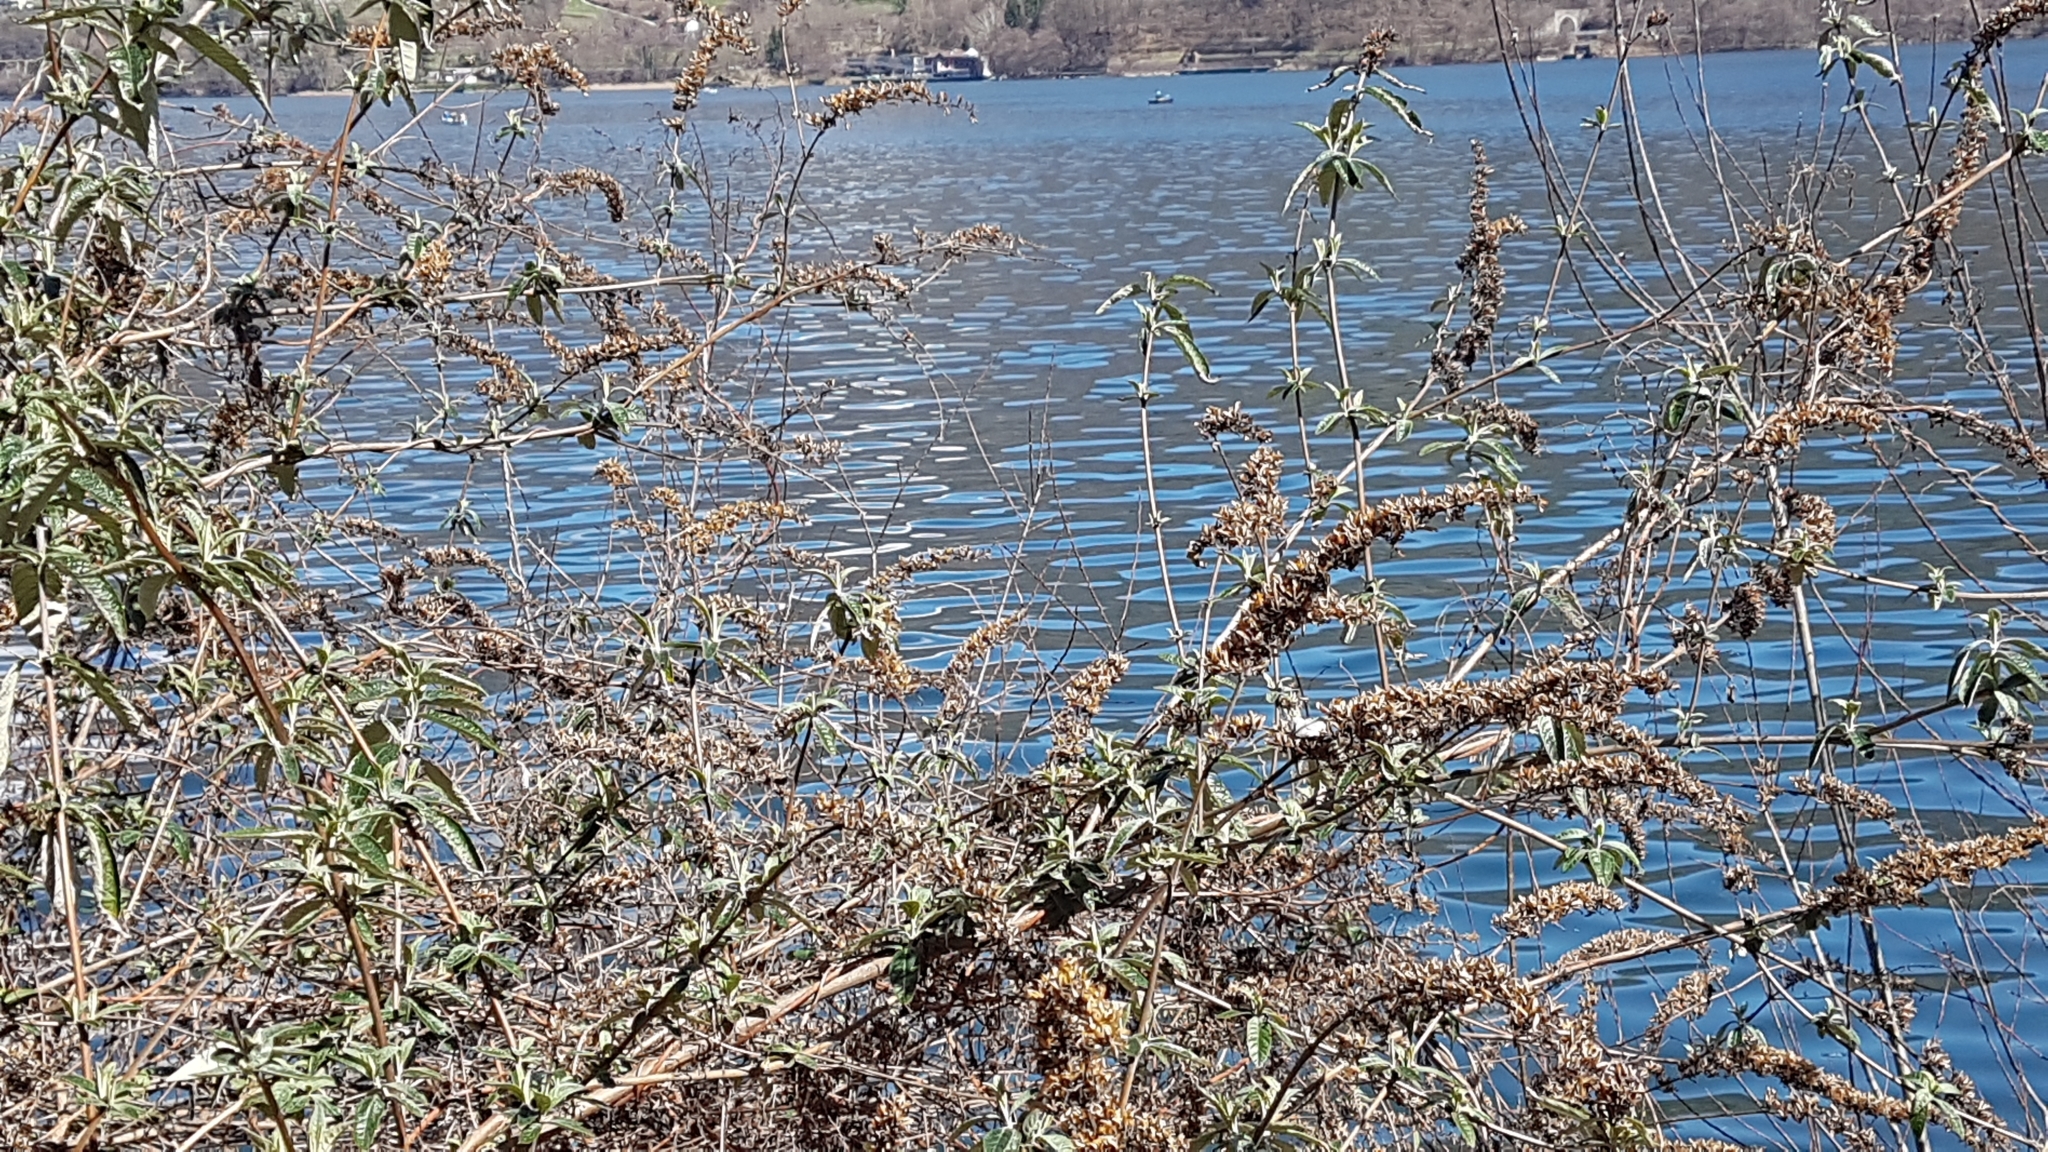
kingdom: Plantae
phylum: Tracheophyta
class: Magnoliopsida
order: Lamiales
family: Scrophulariaceae
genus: Buddleja
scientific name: Buddleja davidii
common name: Butterfly-bush
